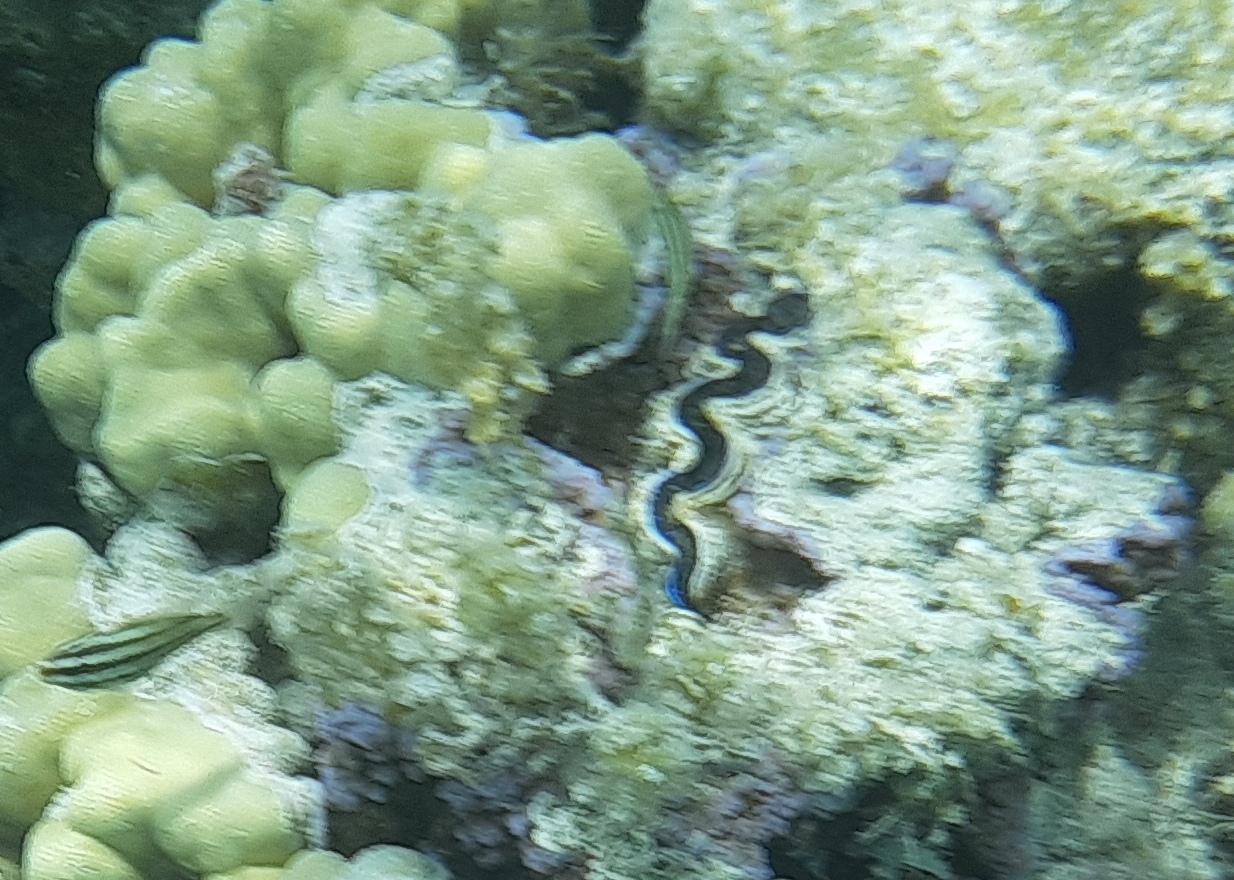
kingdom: Animalia
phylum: Mollusca
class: Bivalvia
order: Cardiida
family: Cardiidae
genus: Tridacna
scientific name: Tridacna maxima
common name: Small giant clam
